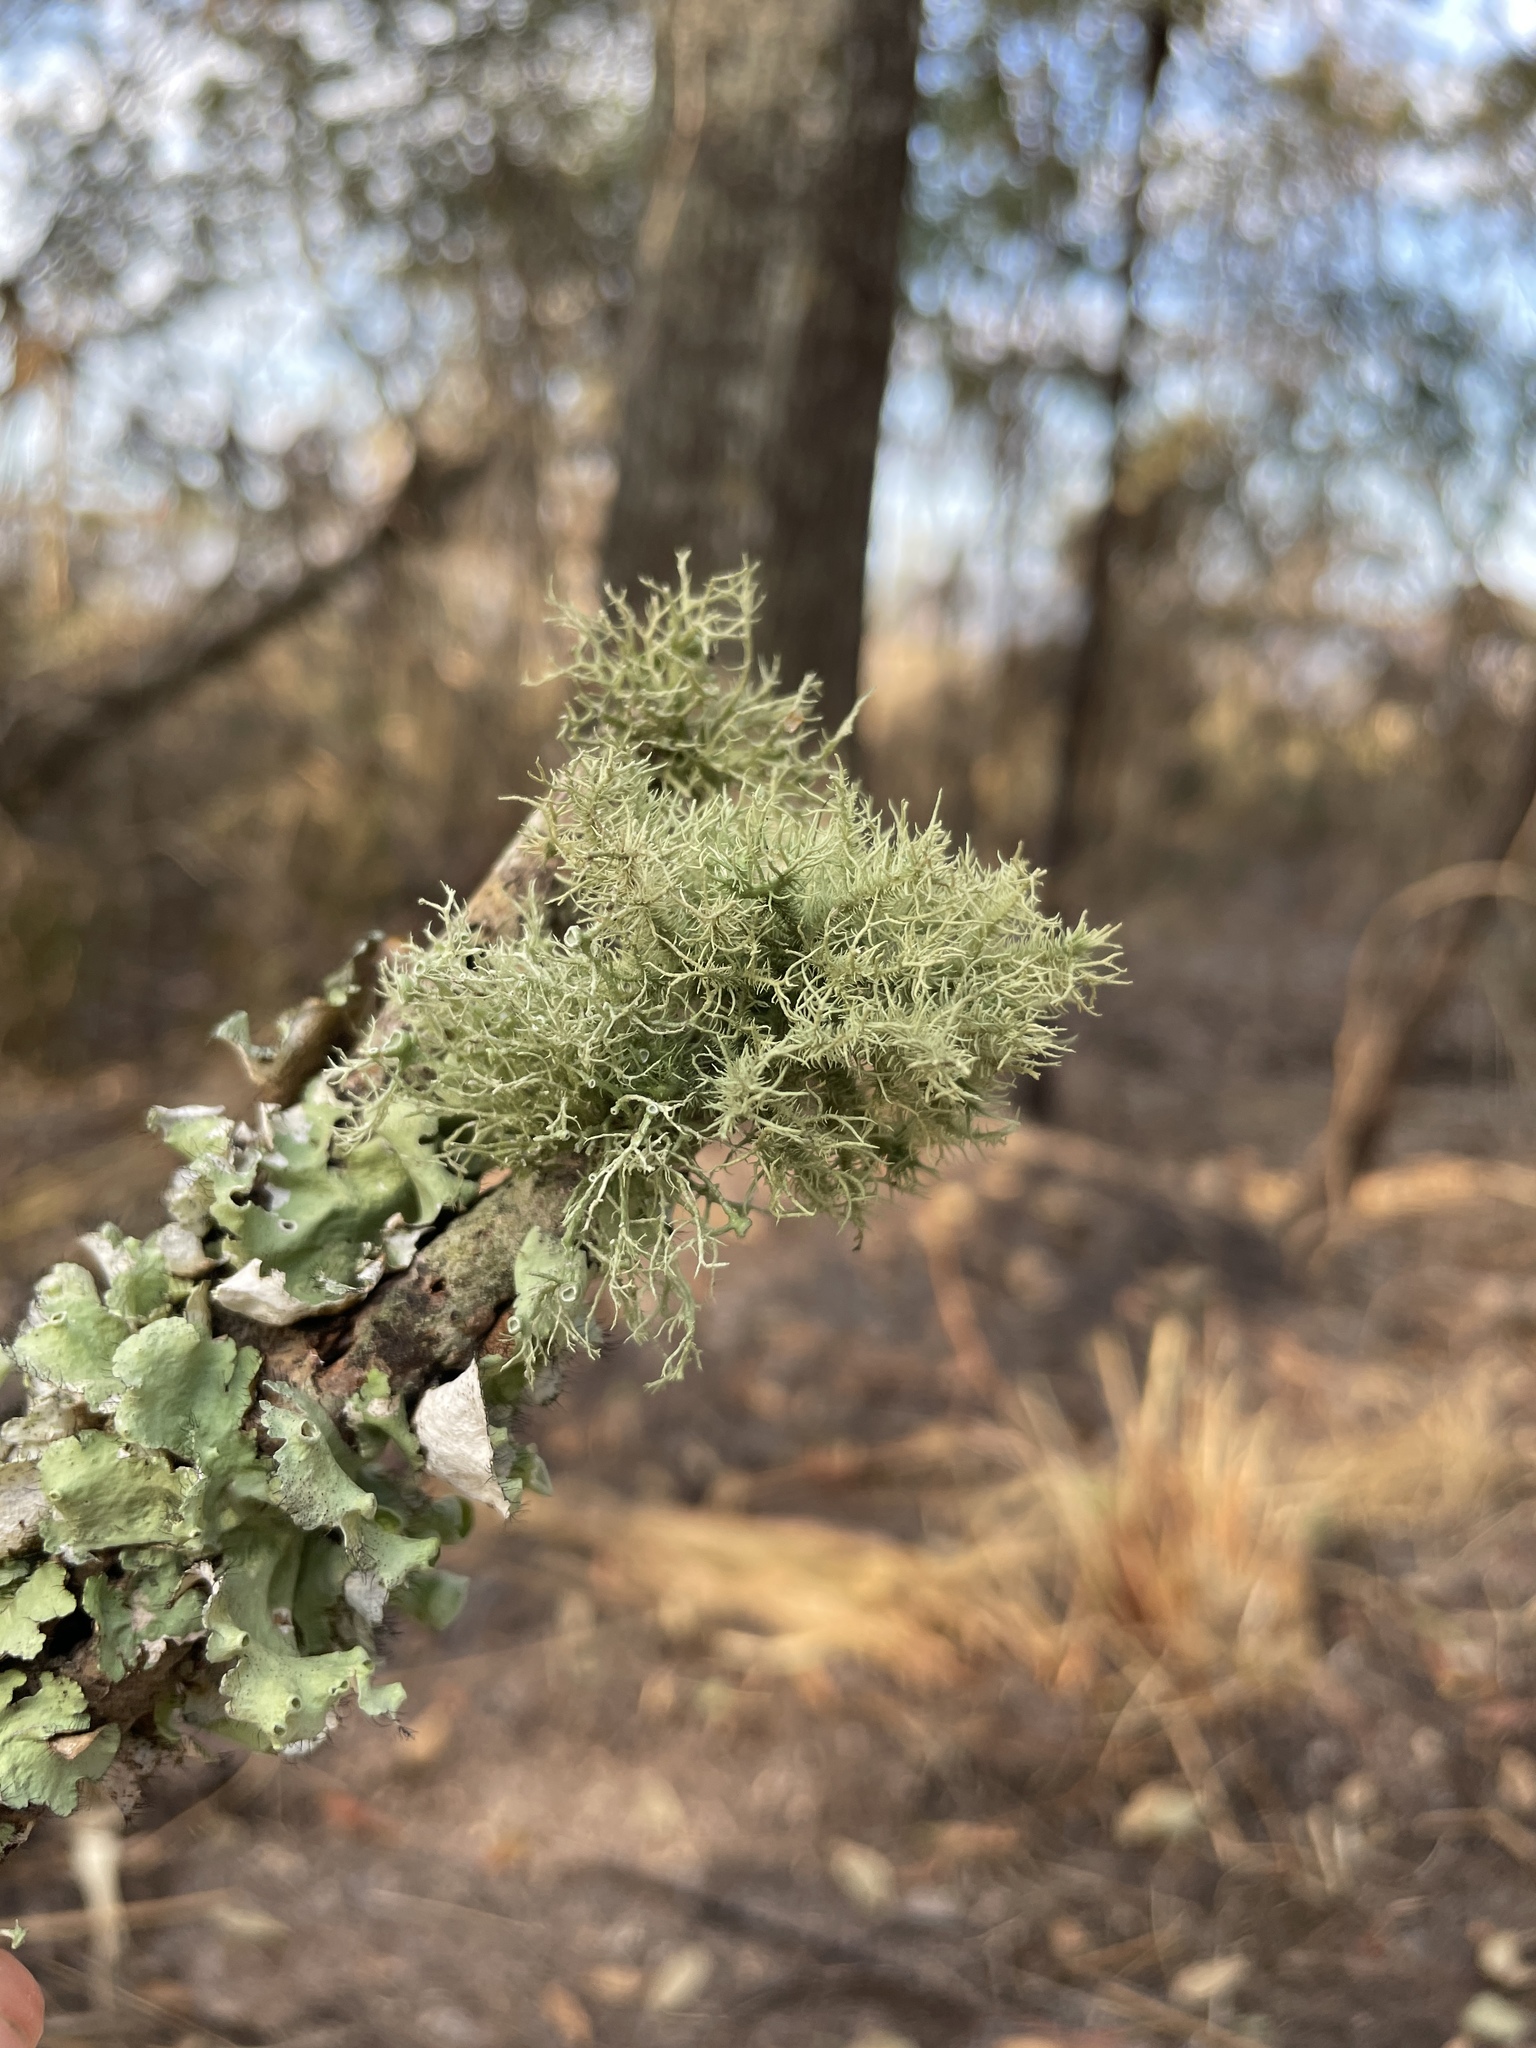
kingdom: Fungi
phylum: Ascomycota
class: Lecanoromycetes
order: Lecanorales
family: Parmeliaceae
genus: Usnea
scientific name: Usnea strigosa
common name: Bushy beard lichen
